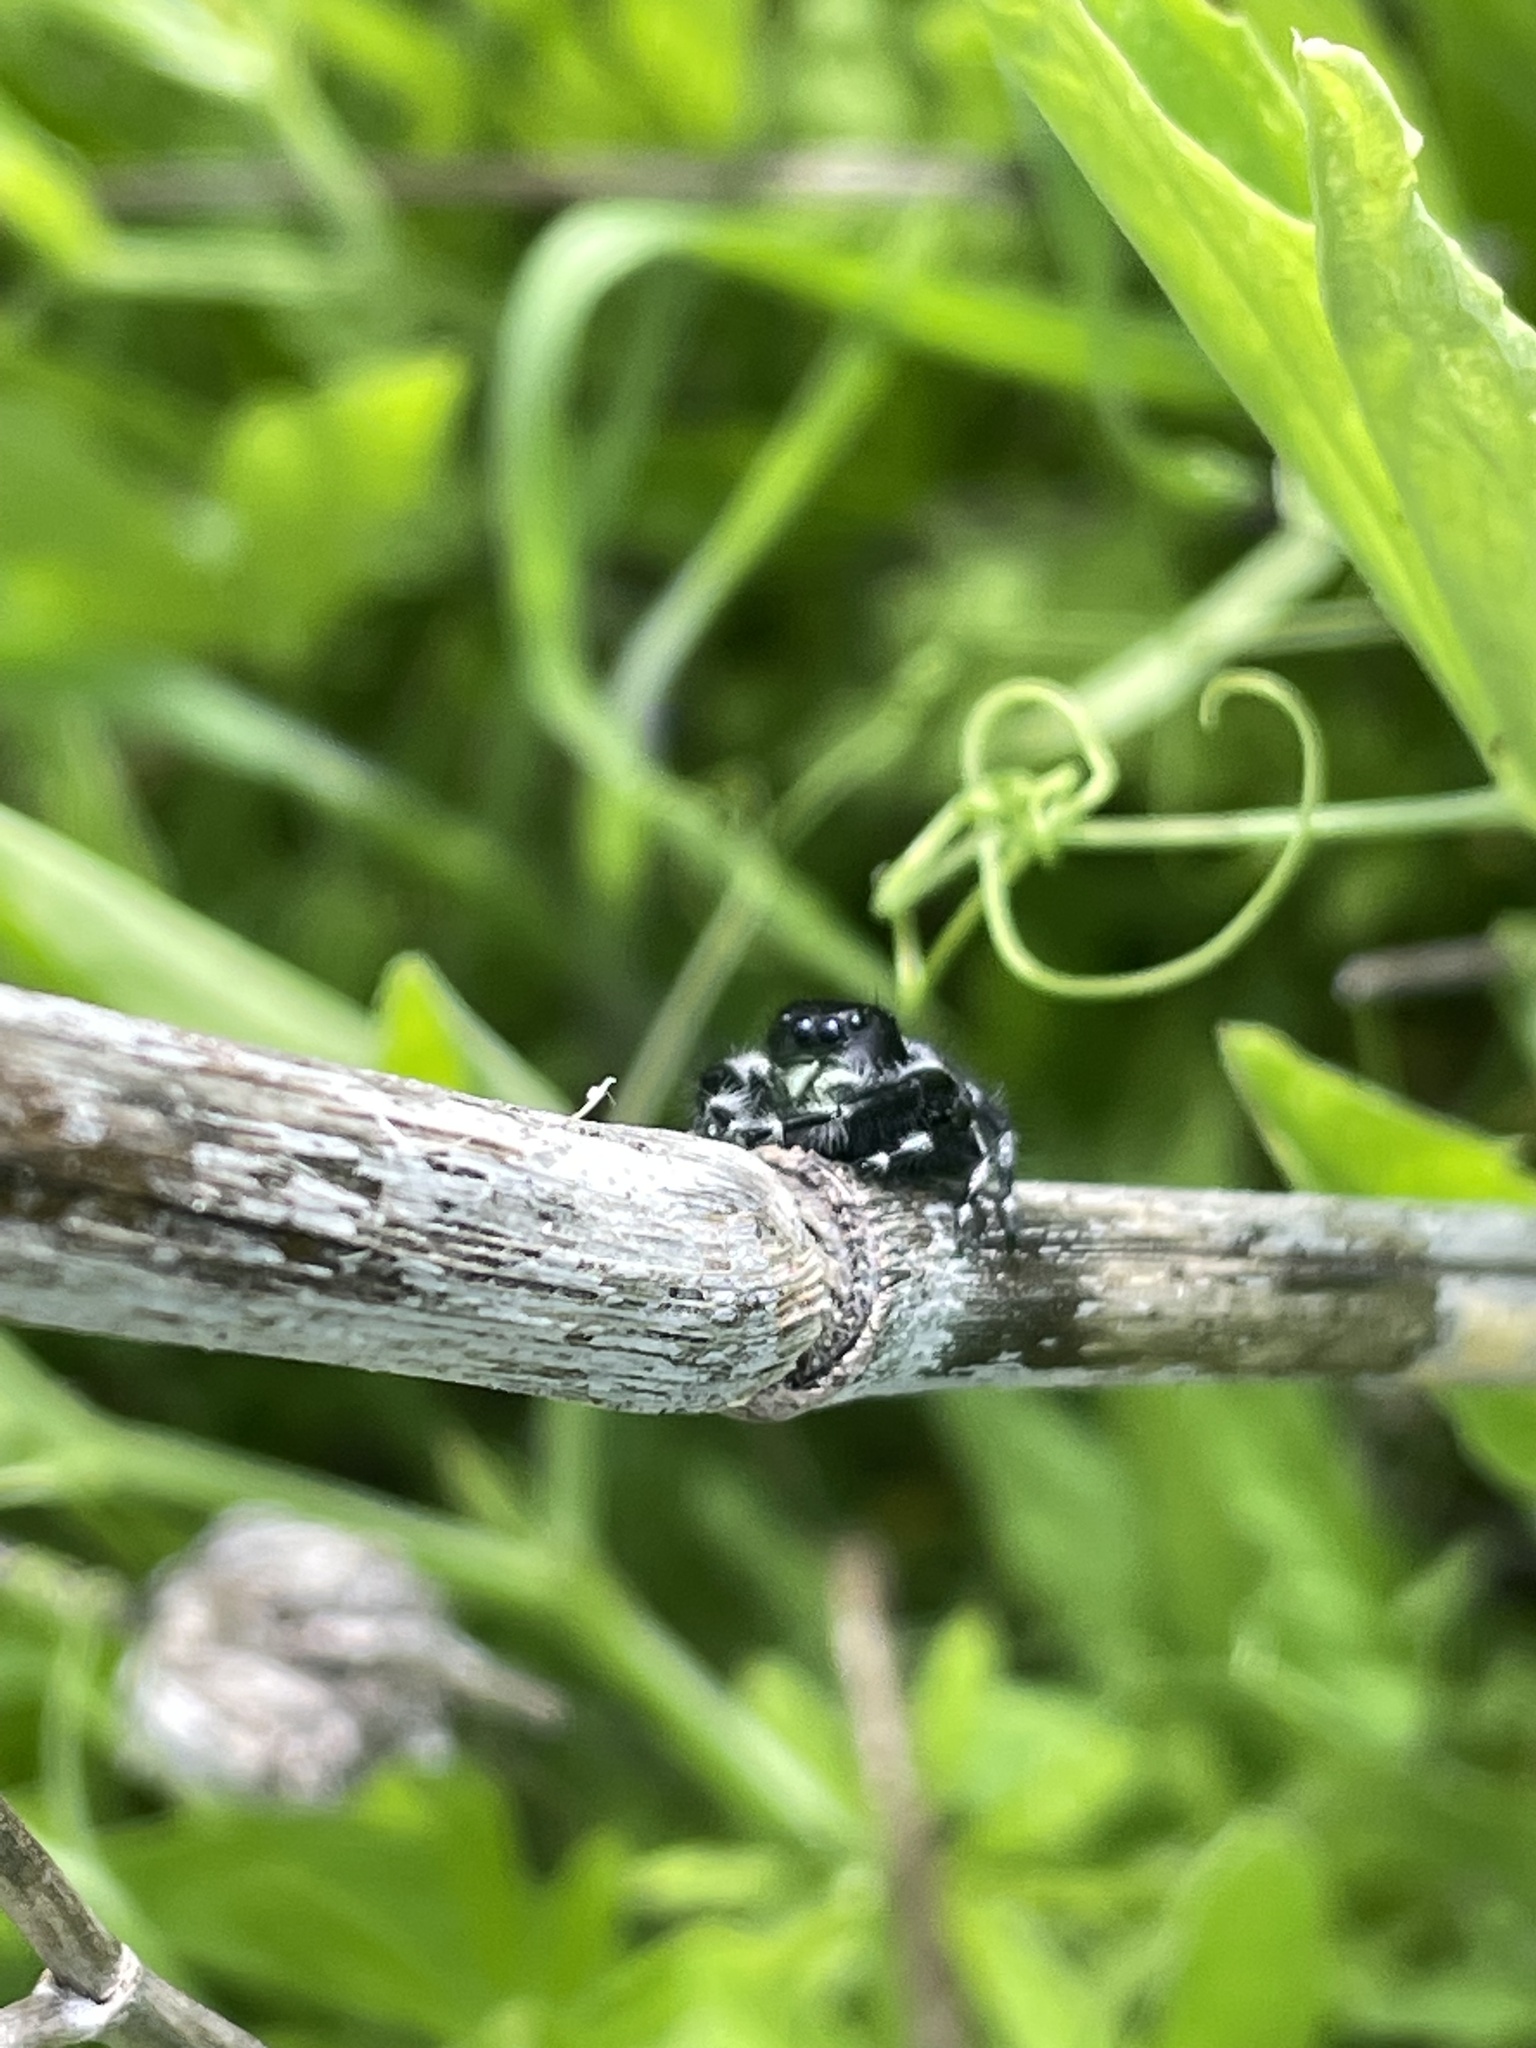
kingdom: Animalia
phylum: Arthropoda
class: Arachnida
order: Araneae
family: Salticidae
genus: Phidippus
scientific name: Phidippus audax
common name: Bold jumper
